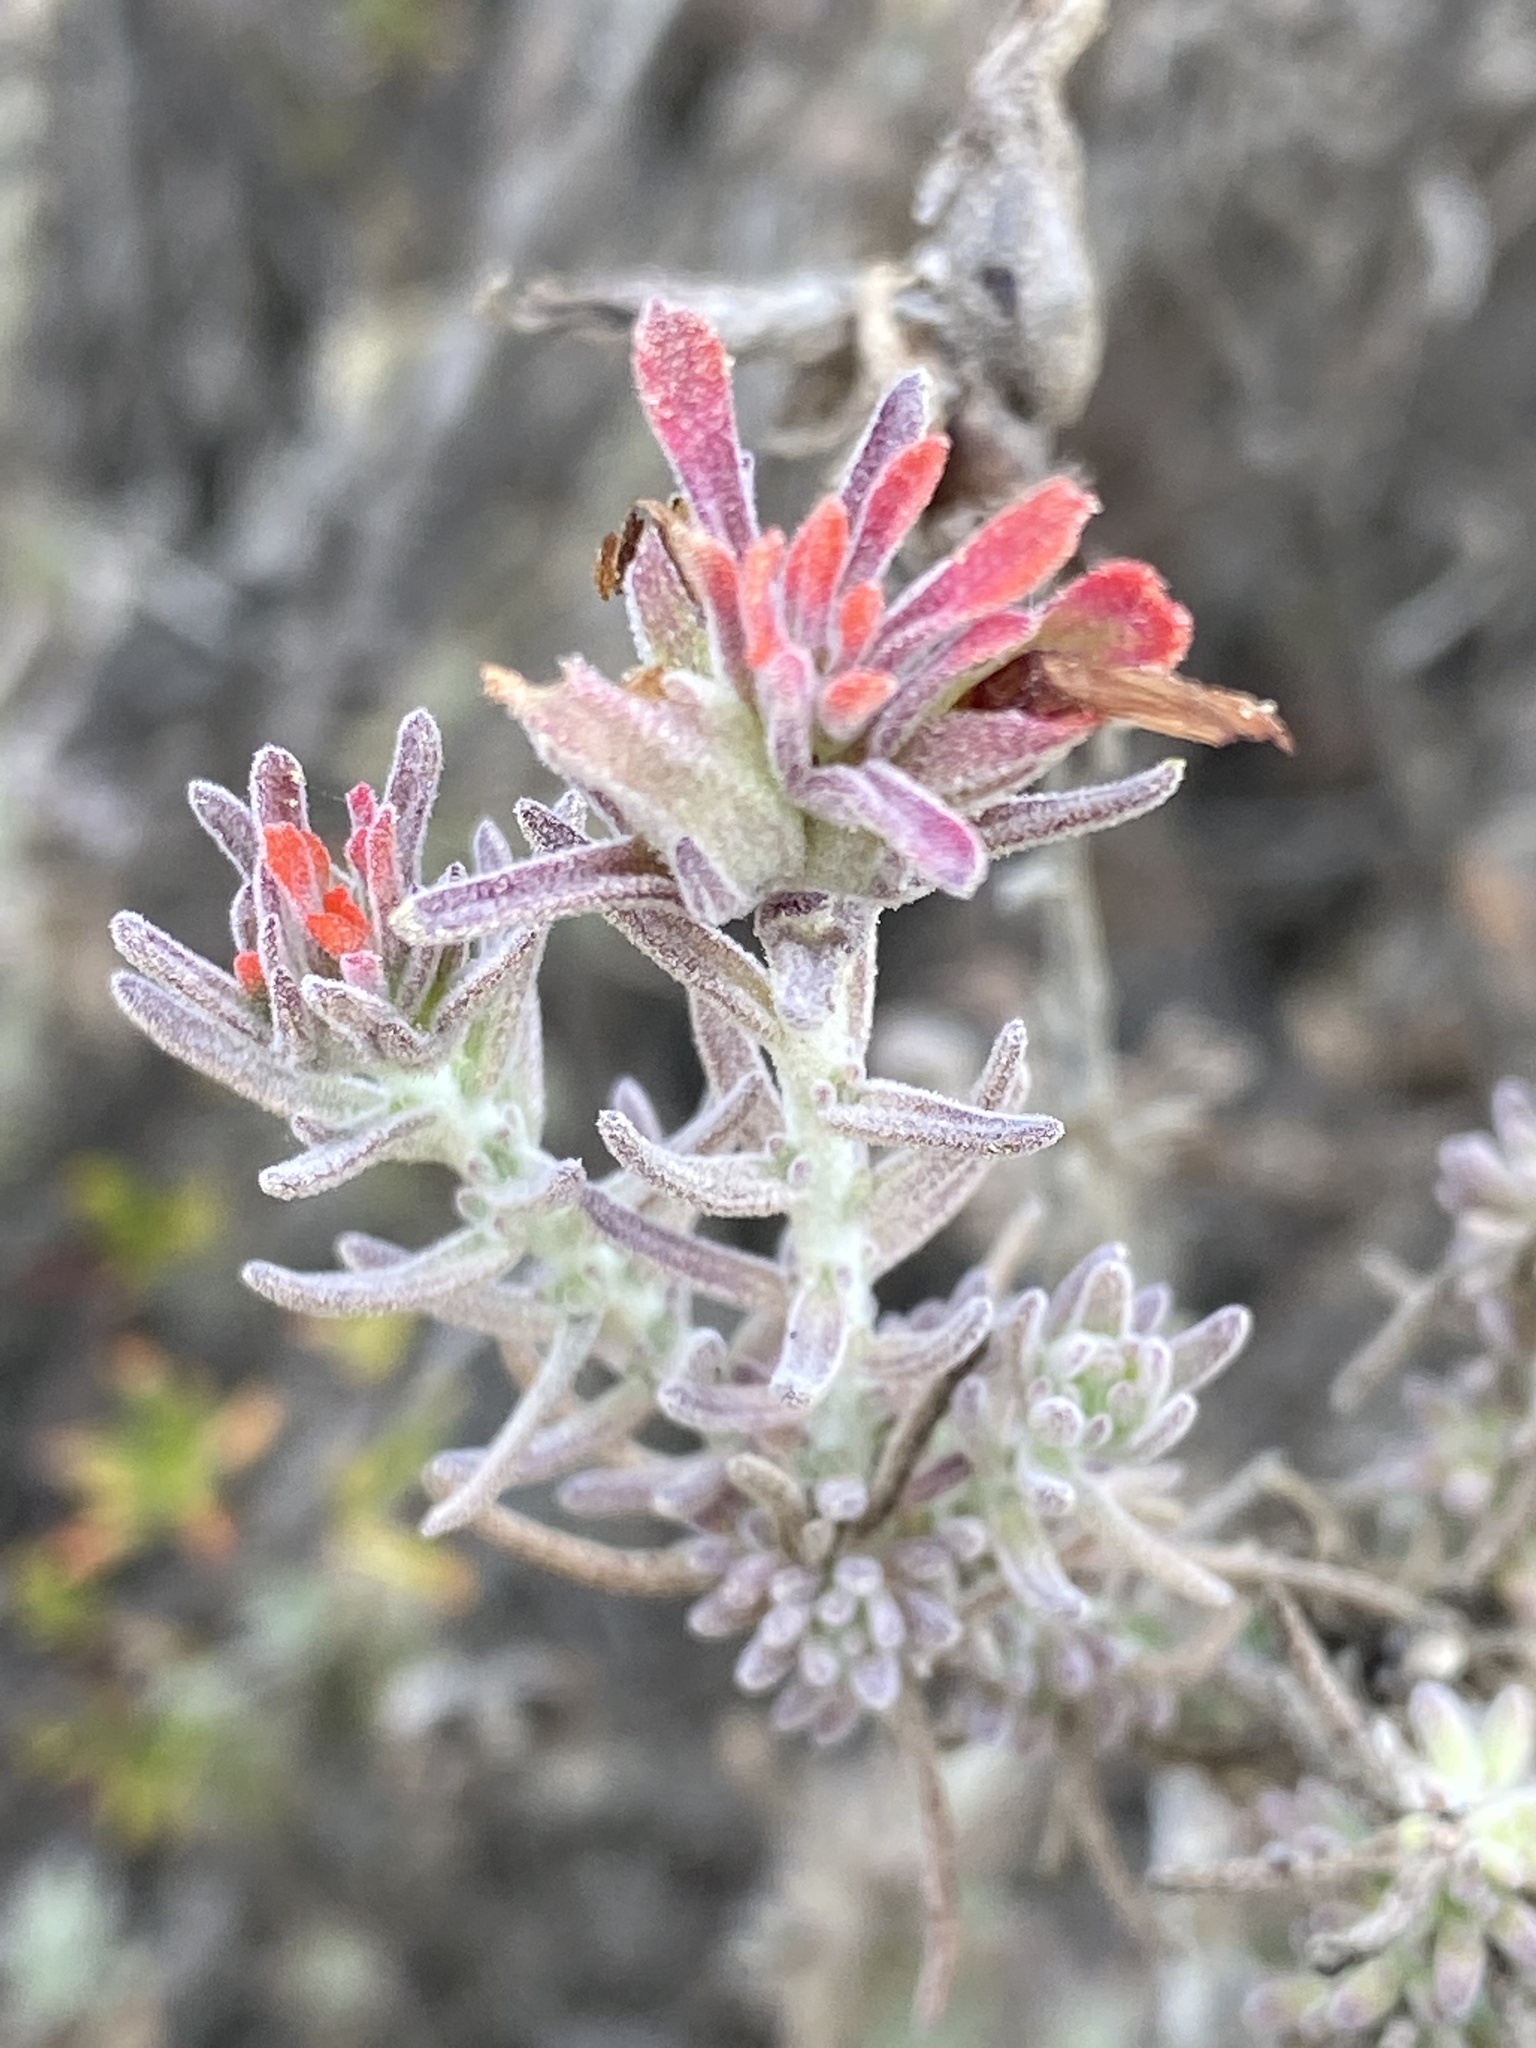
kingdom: Plantae
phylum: Tracheophyta
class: Magnoliopsida
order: Lamiales
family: Orobanchaceae
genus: Castilleja
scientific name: Castilleja foliolosa
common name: Woolly indian paintbrush
